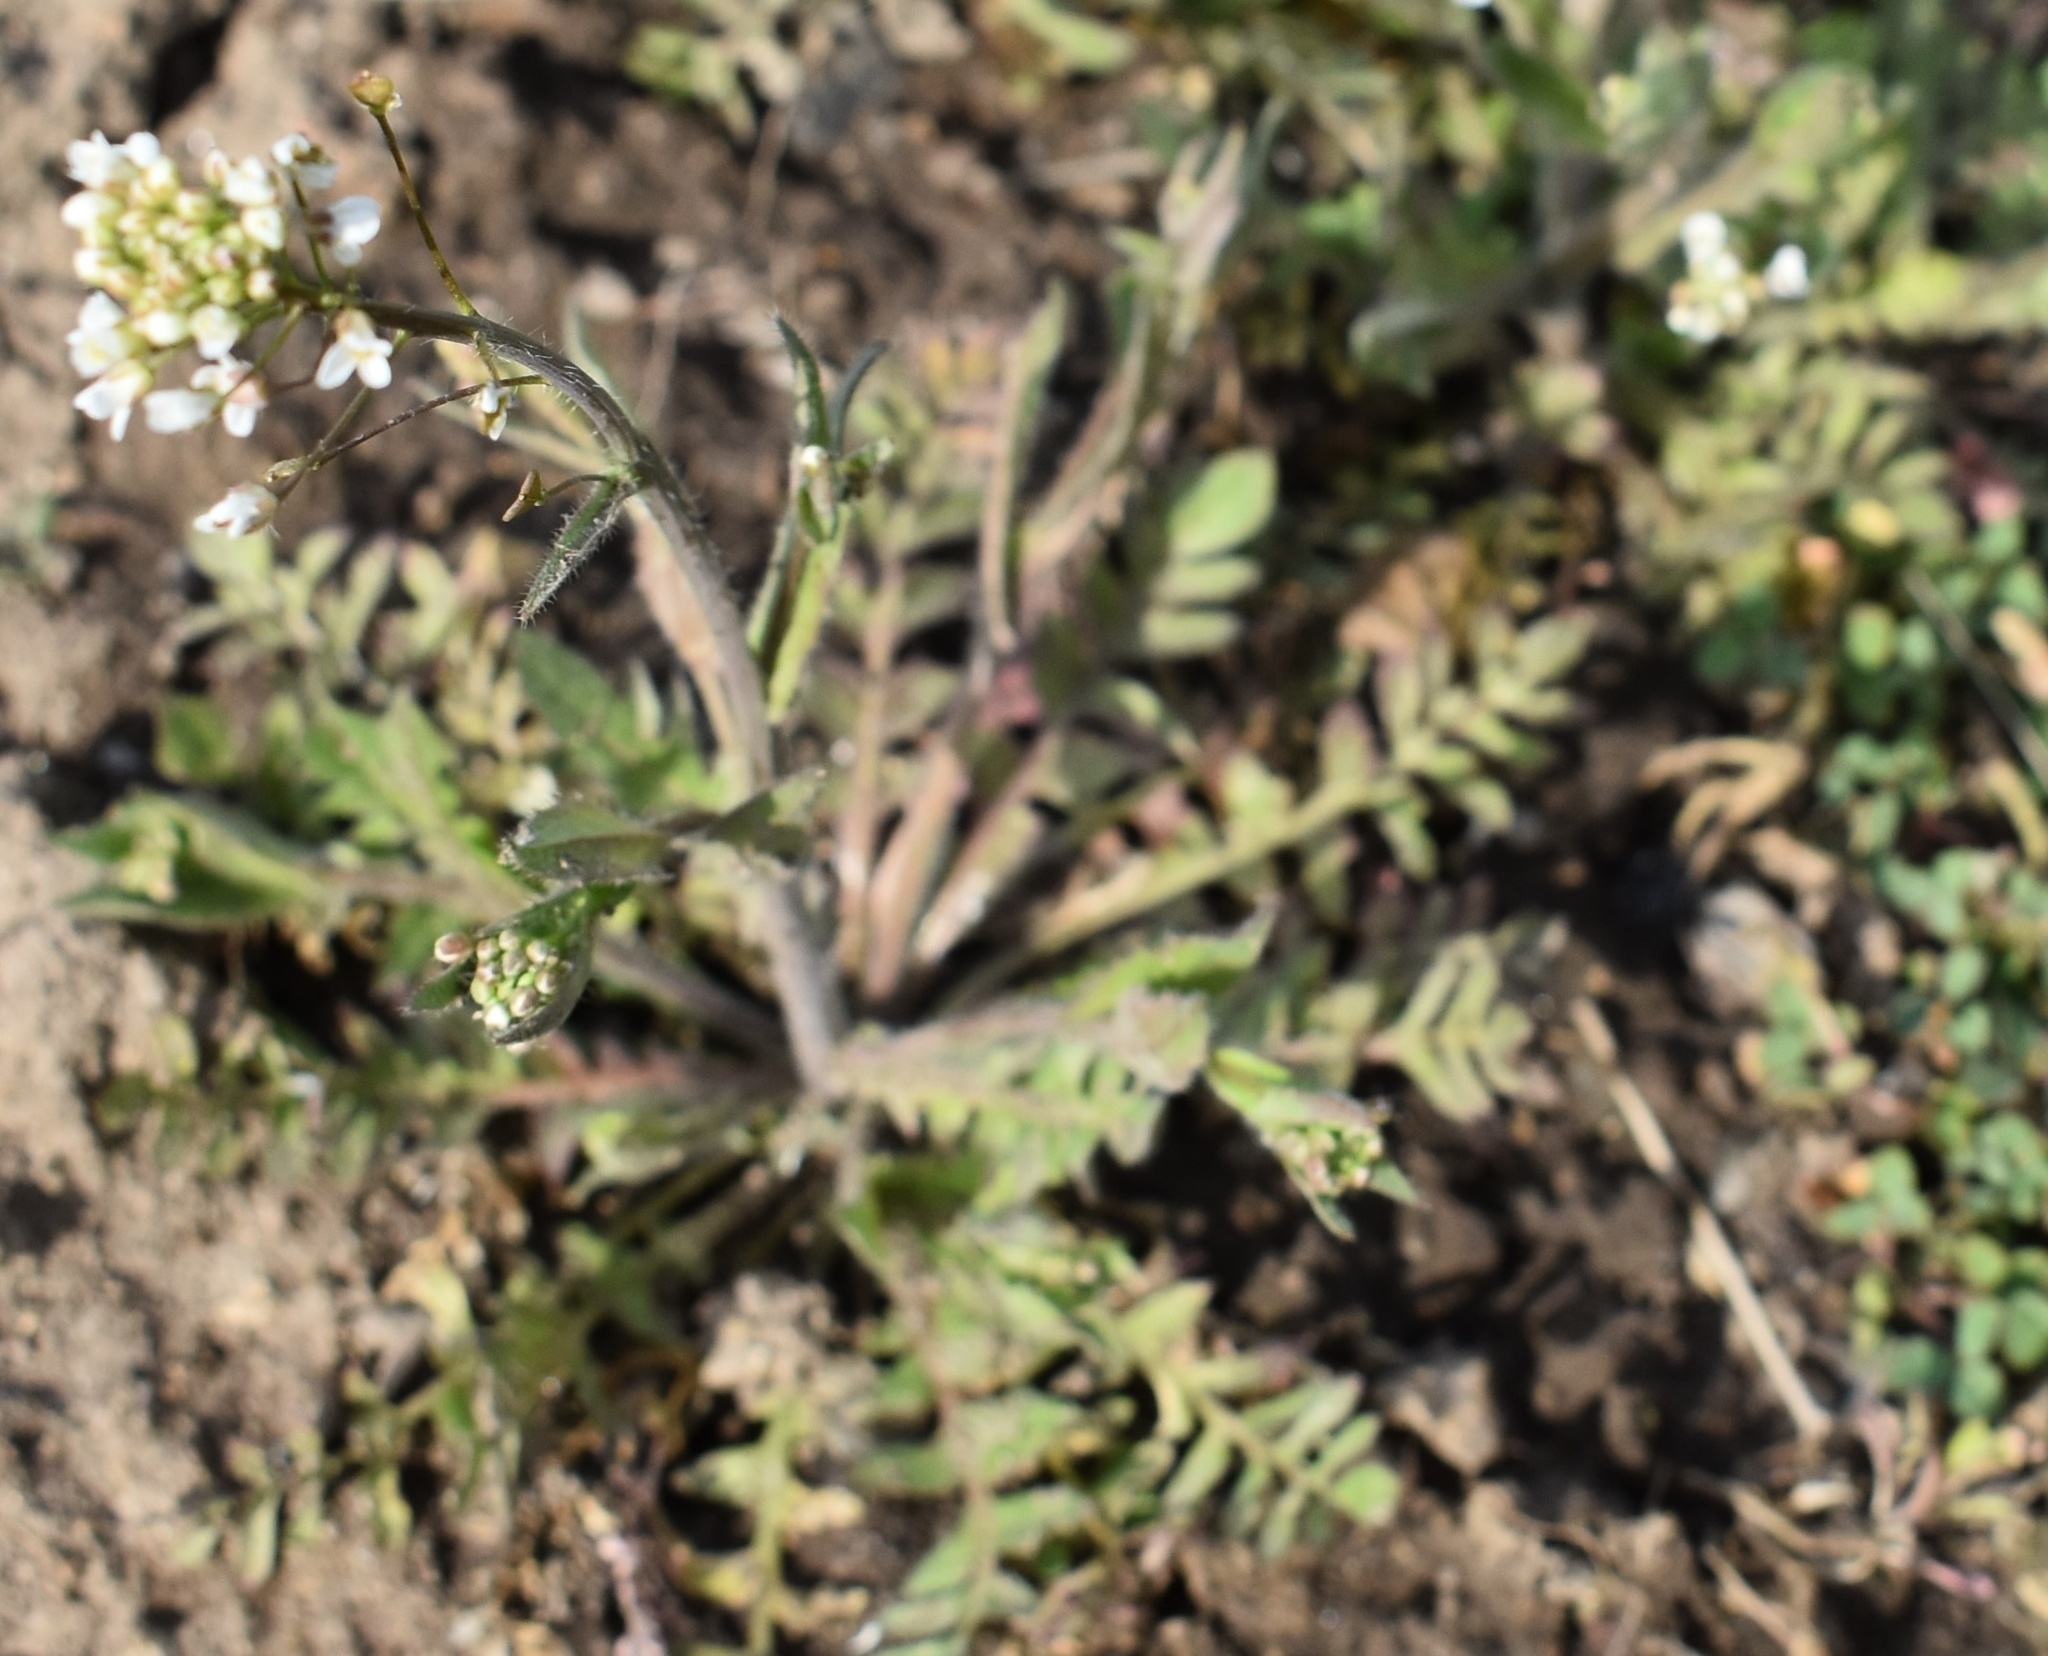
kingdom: Plantae
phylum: Tracheophyta
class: Magnoliopsida
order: Brassicales
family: Brassicaceae
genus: Capsella
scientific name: Capsella bursa-pastoris
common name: Shepherd's purse
